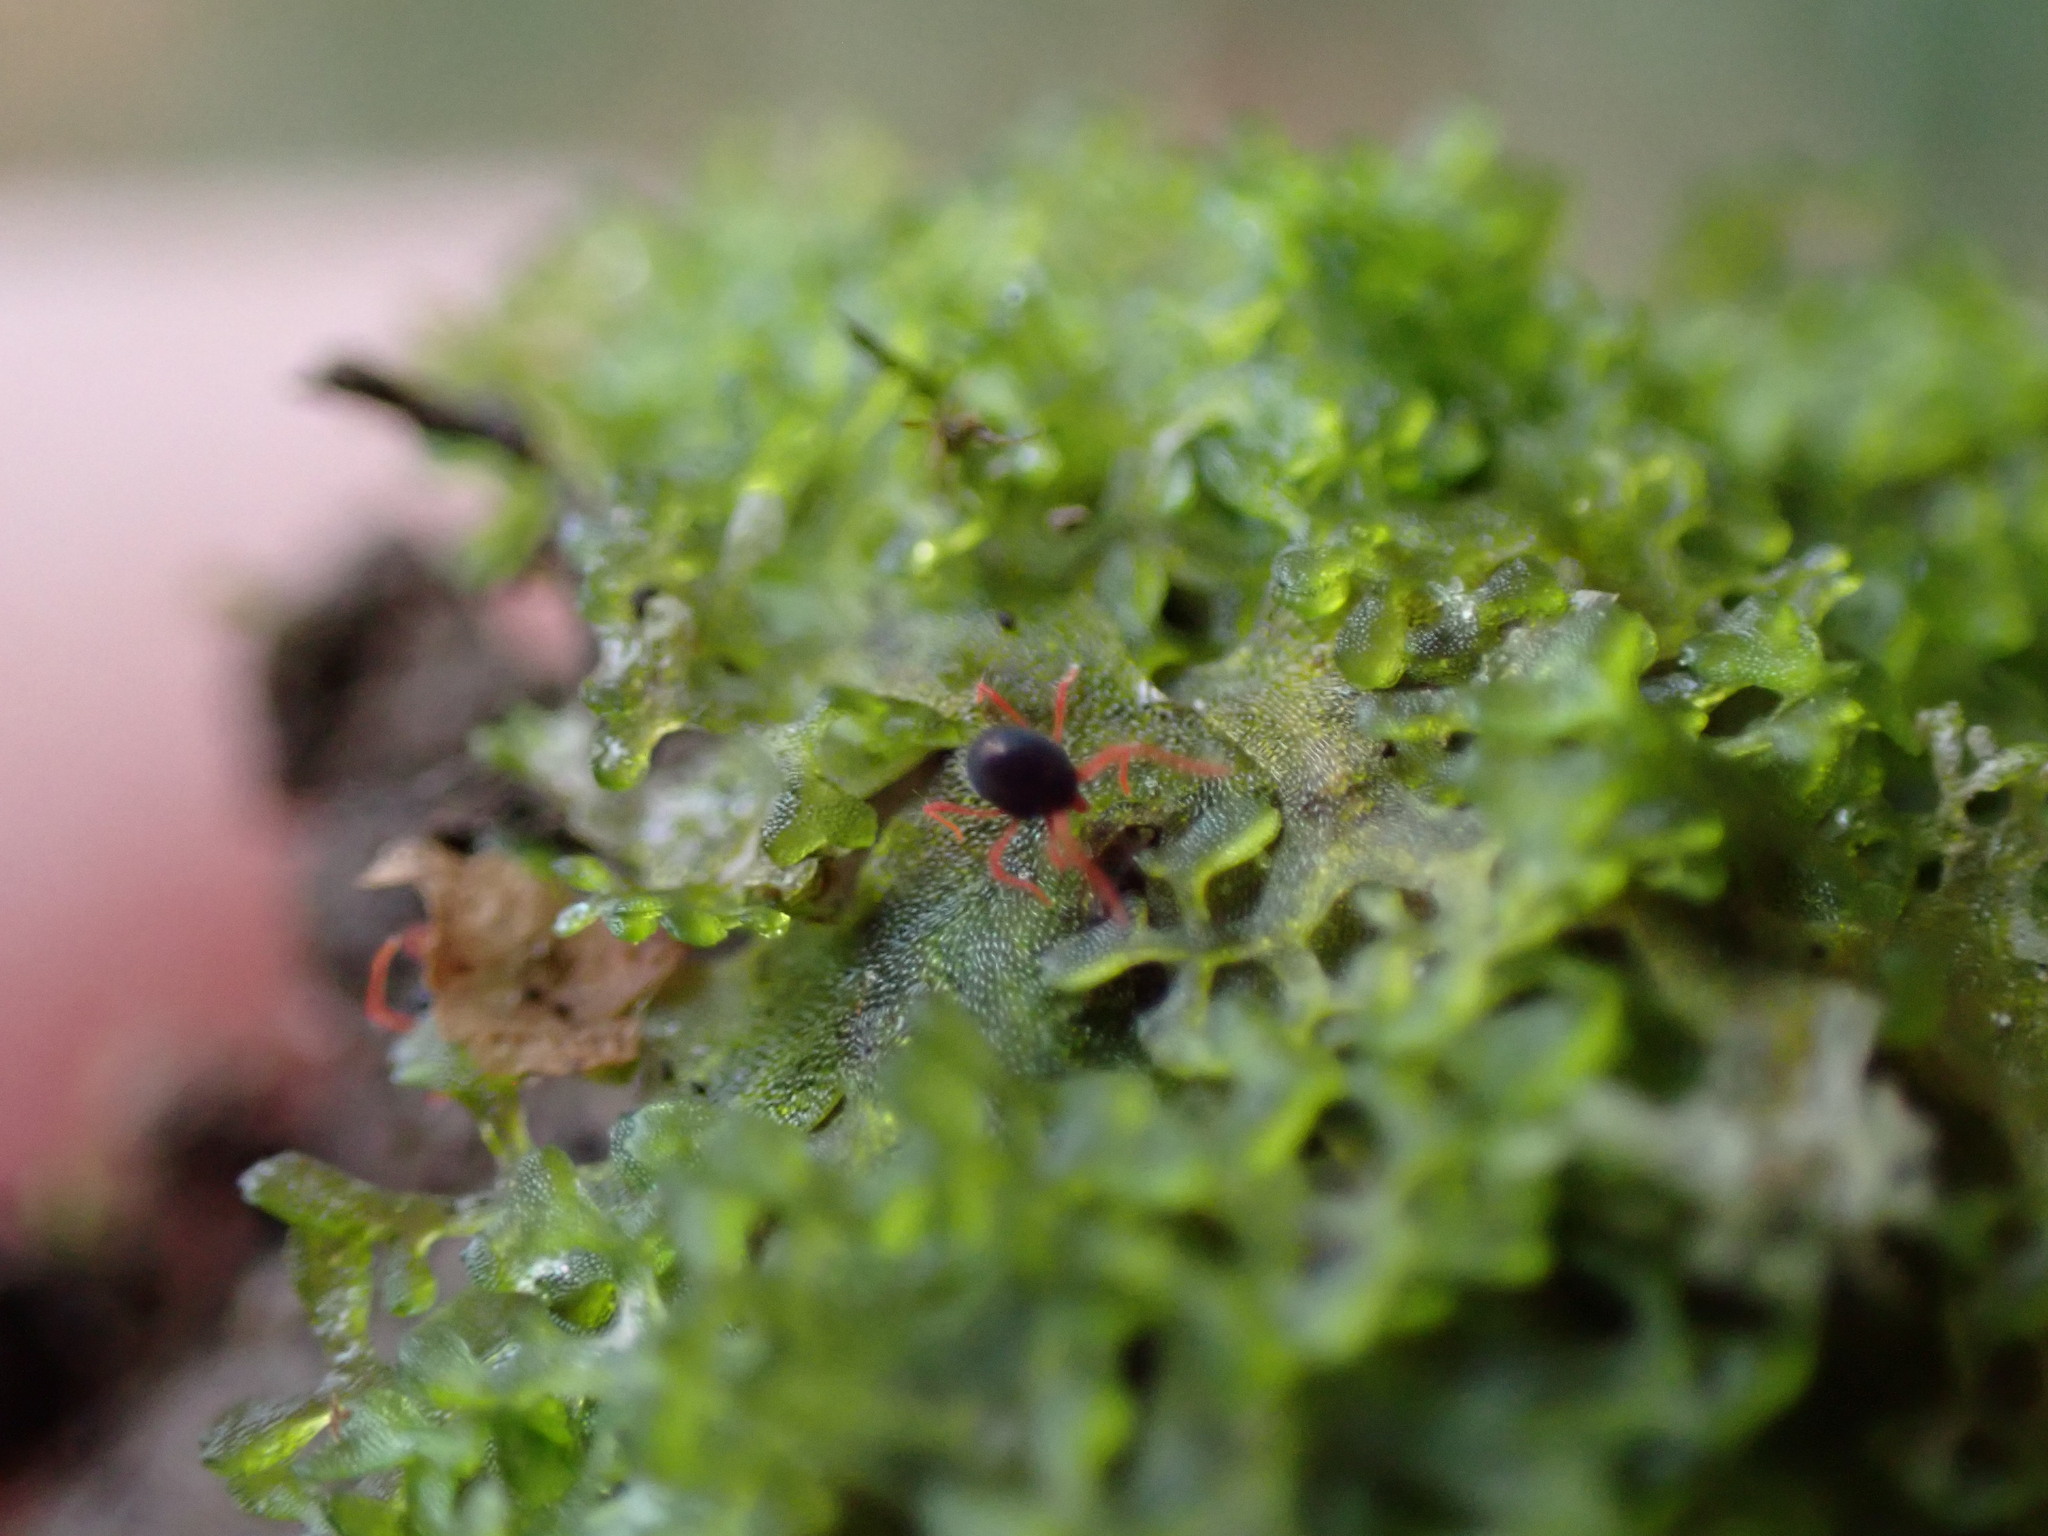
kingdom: Plantae
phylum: Marchantiophyta
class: Jungermanniopsida
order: Pelliales
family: Pelliaceae
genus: Apopellia
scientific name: Apopellia endiviifolia
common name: Endive pellia
